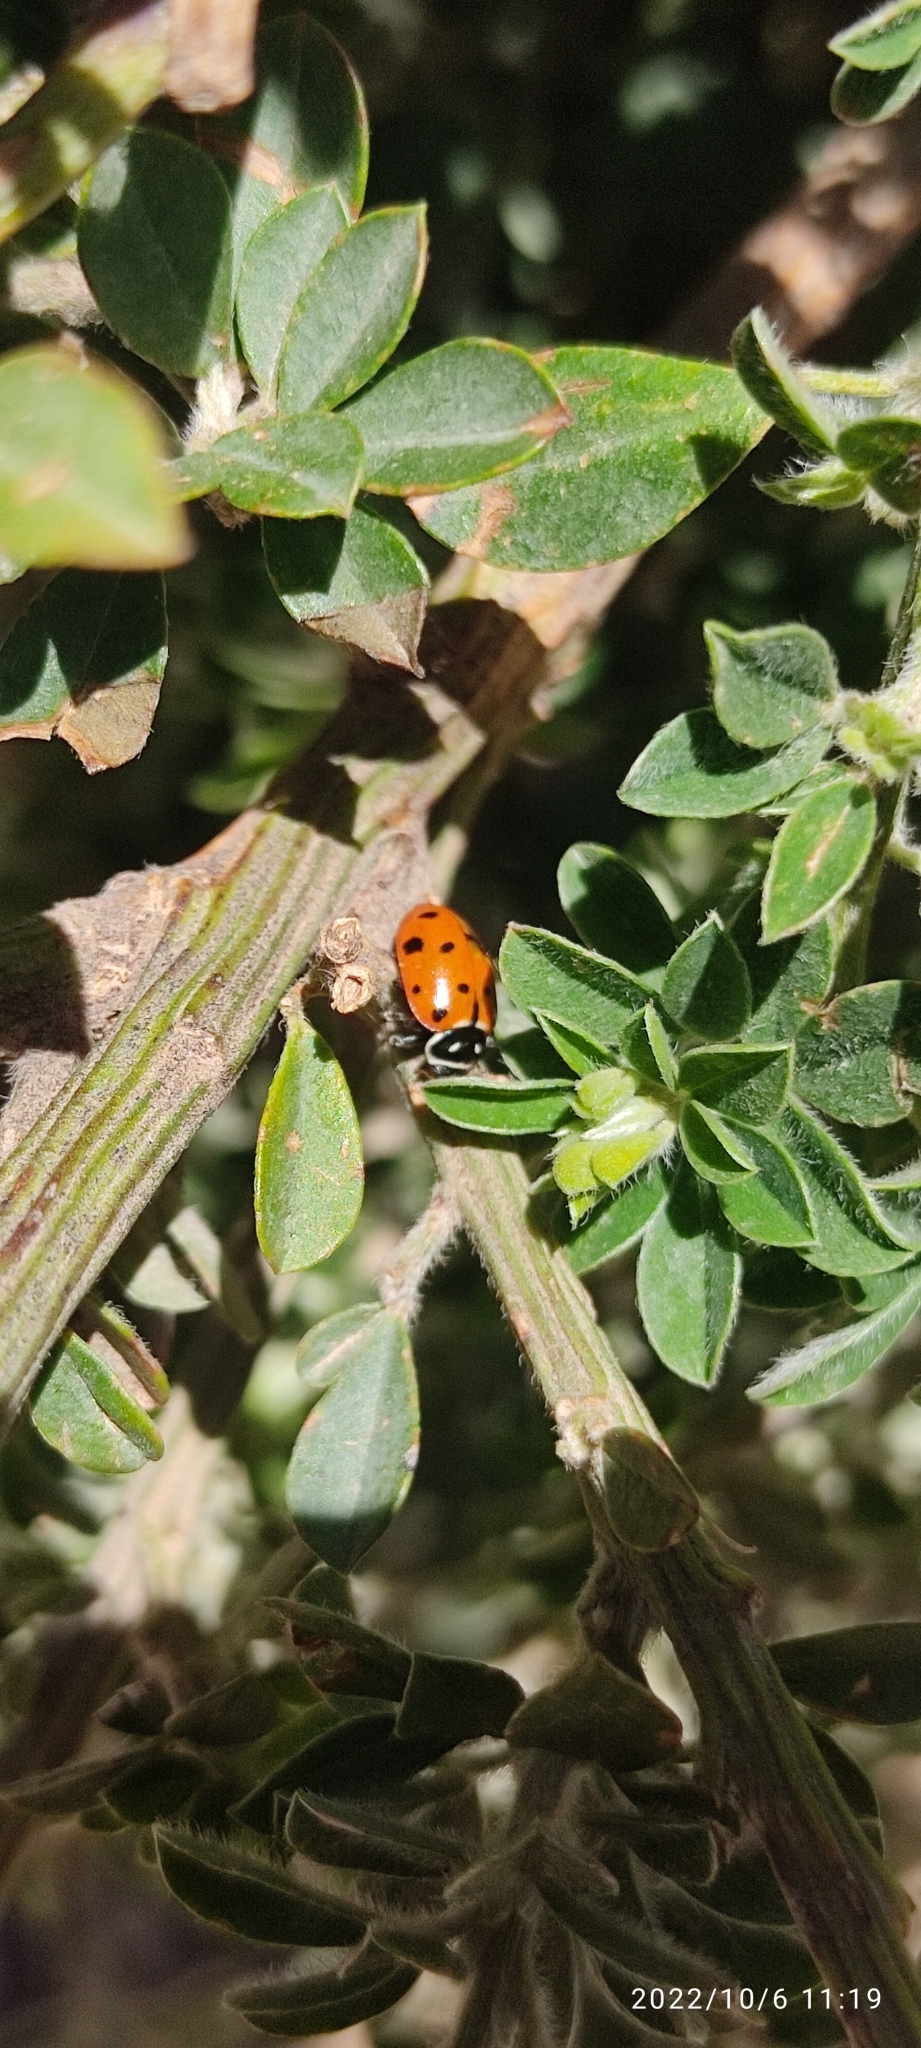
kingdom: Animalia
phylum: Arthropoda
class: Insecta
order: Coleoptera
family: Coccinellidae
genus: Hippodamia
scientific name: Hippodamia convergens
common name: Convergent lady beetle
